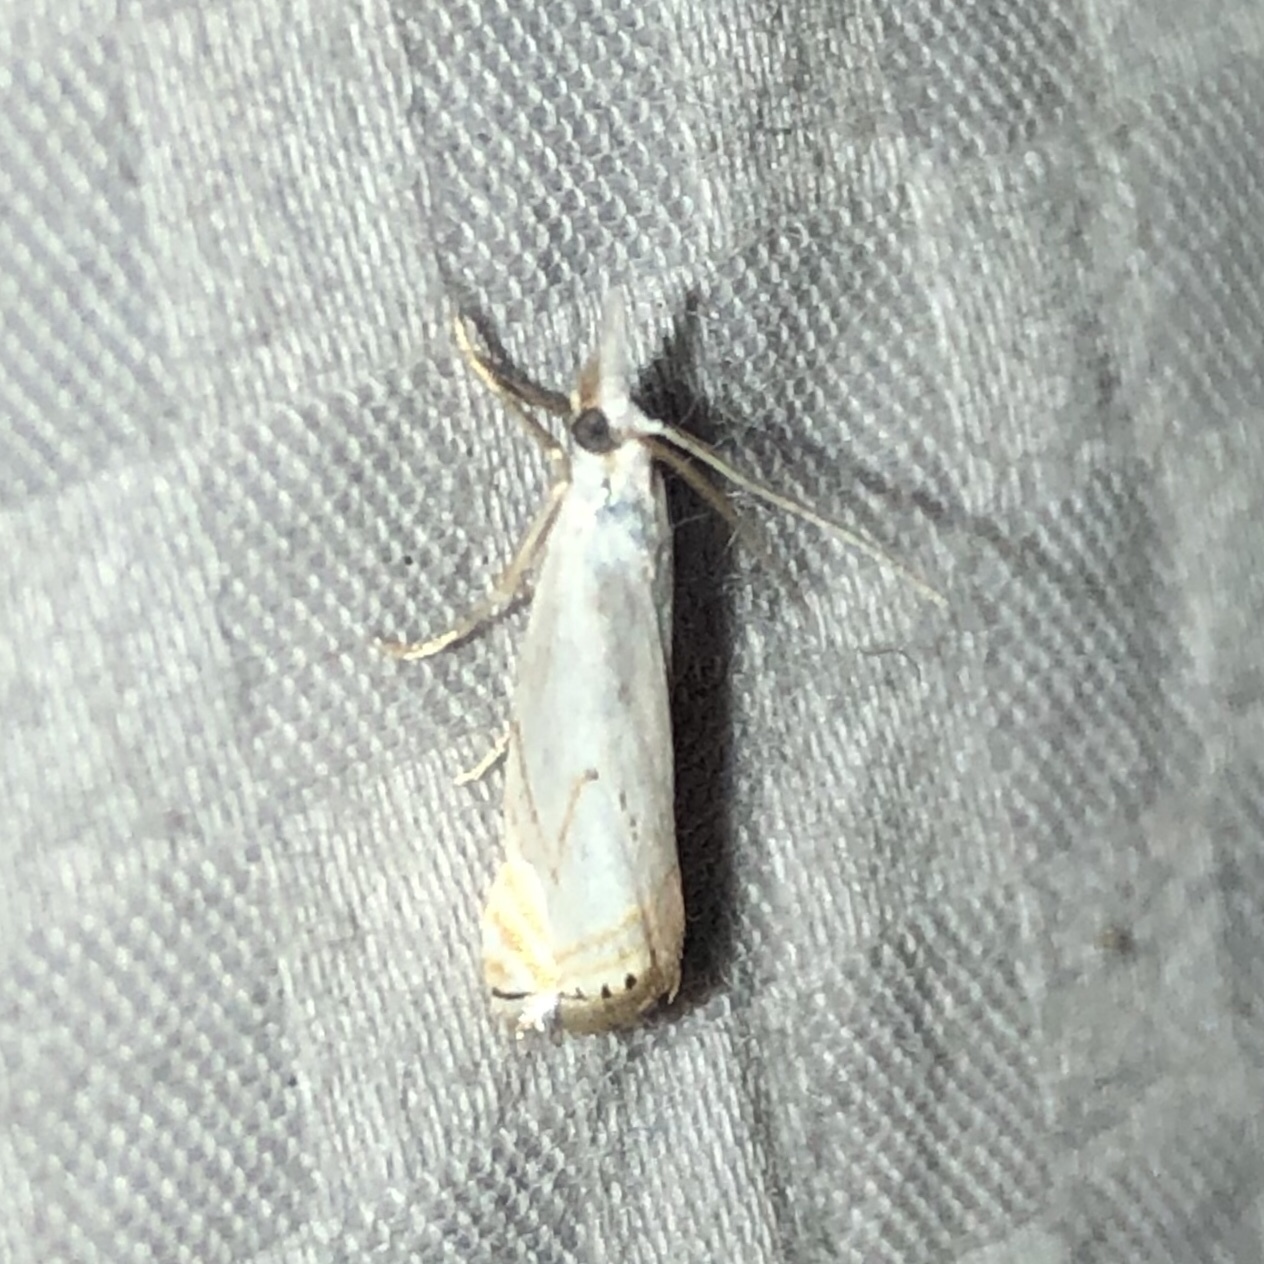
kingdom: Animalia
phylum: Arthropoda
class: Insecta
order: Lepidoptera
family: Crambidae
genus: Crambus
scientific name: Crambus albellus
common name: Small white grass-veneer
